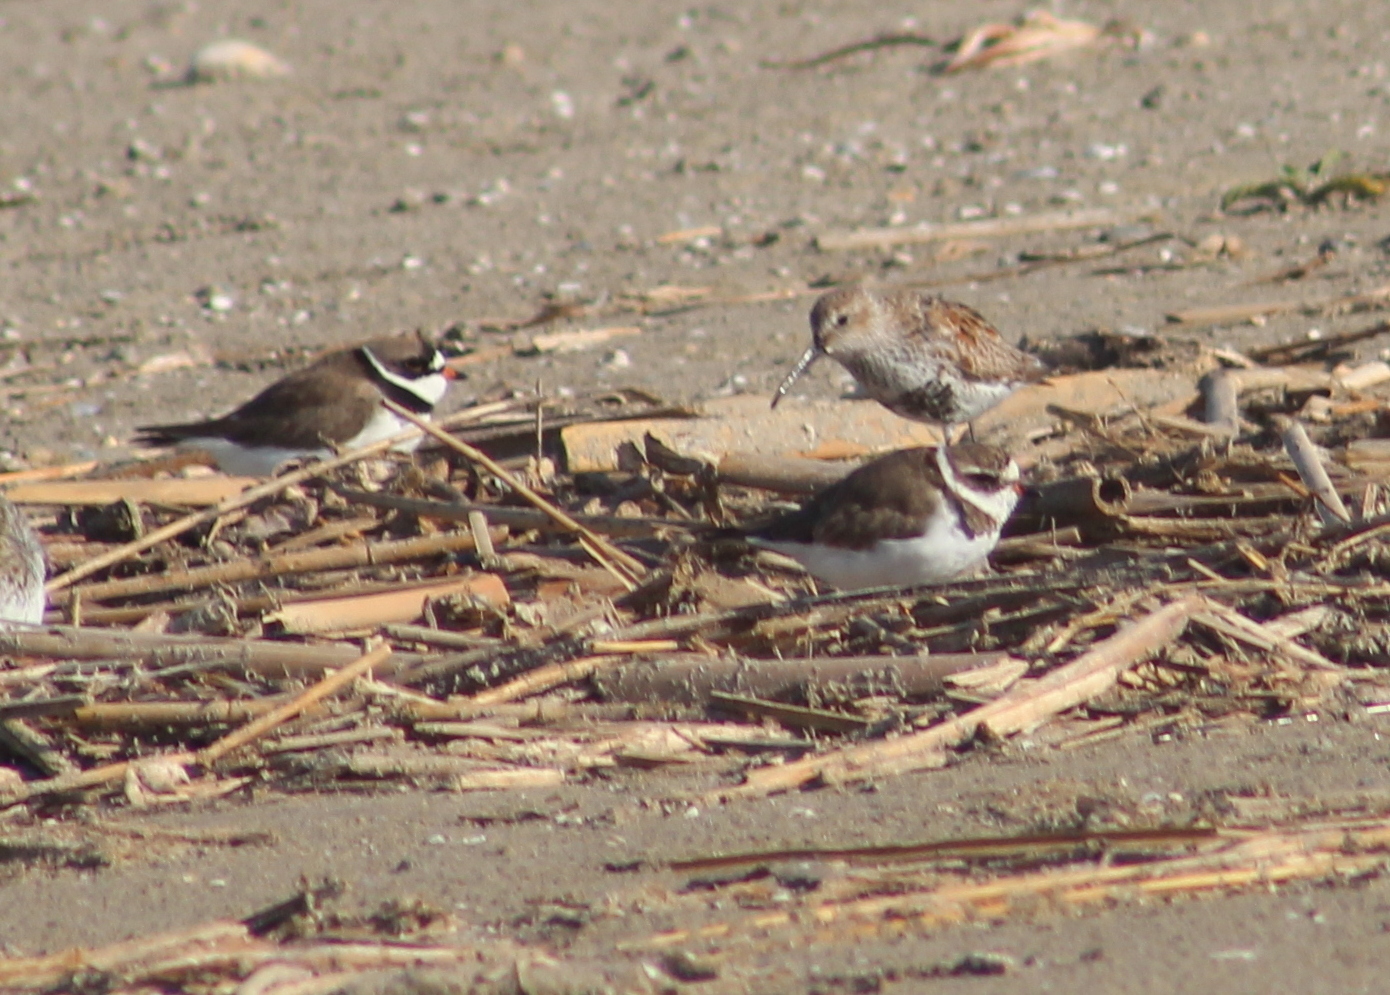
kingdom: Animalia
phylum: Chordata
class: Aves
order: Charadriiformes
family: Charadriidae
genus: Charadrius
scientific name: Charadrius semipalmatus
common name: Semipalmated plover
